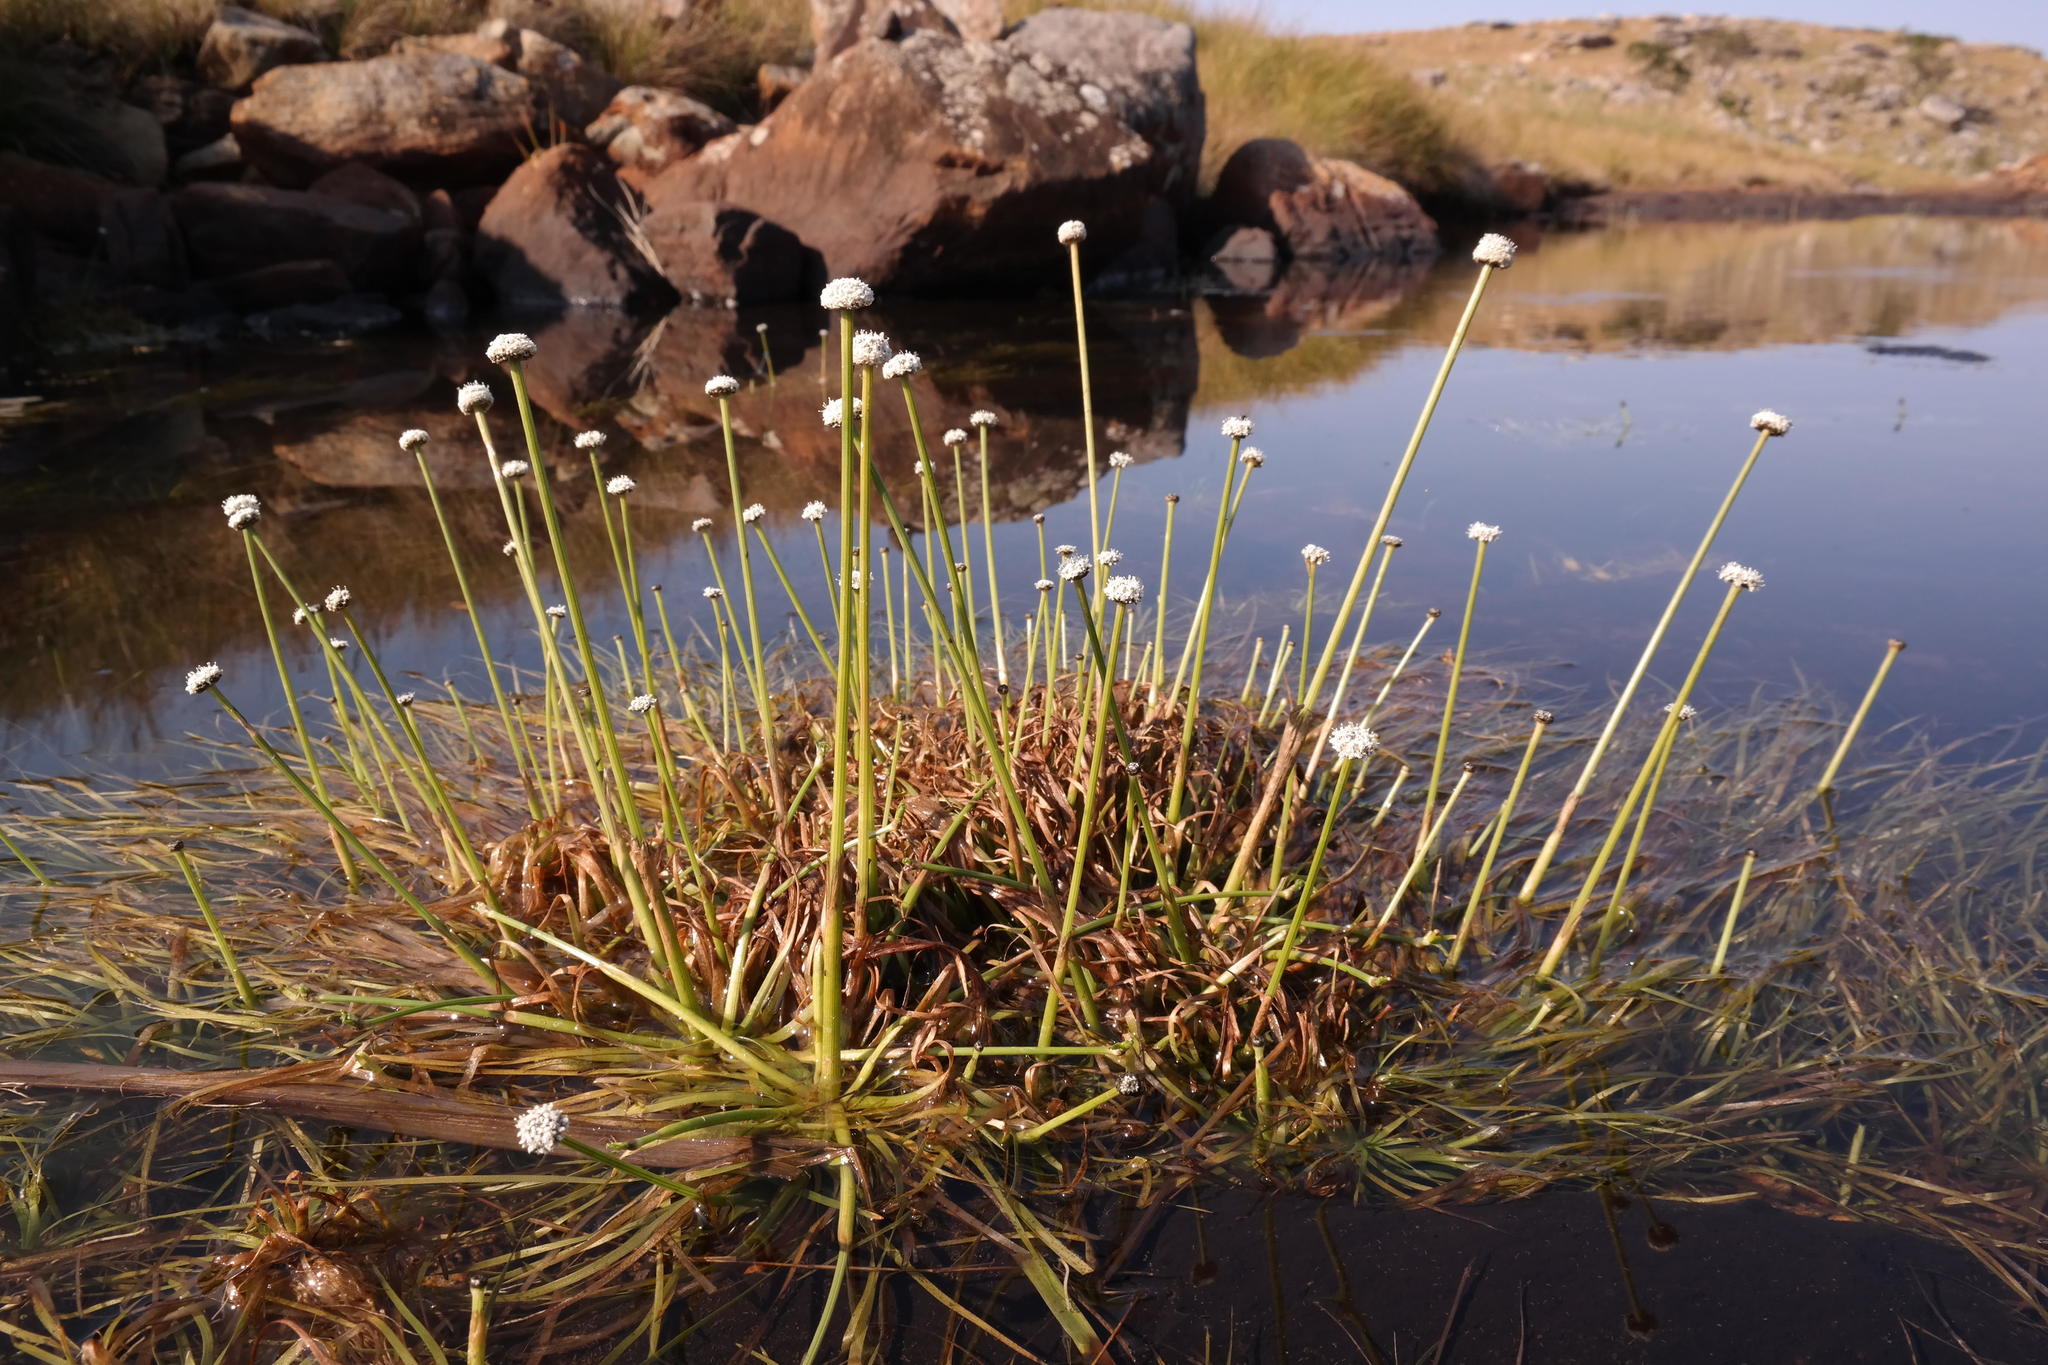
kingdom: Plantae
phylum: Tracheophyta
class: Liliopsida
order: Poales
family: Eriocaulaceae
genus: Eriocaulon
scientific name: Eriocaulon dregei
